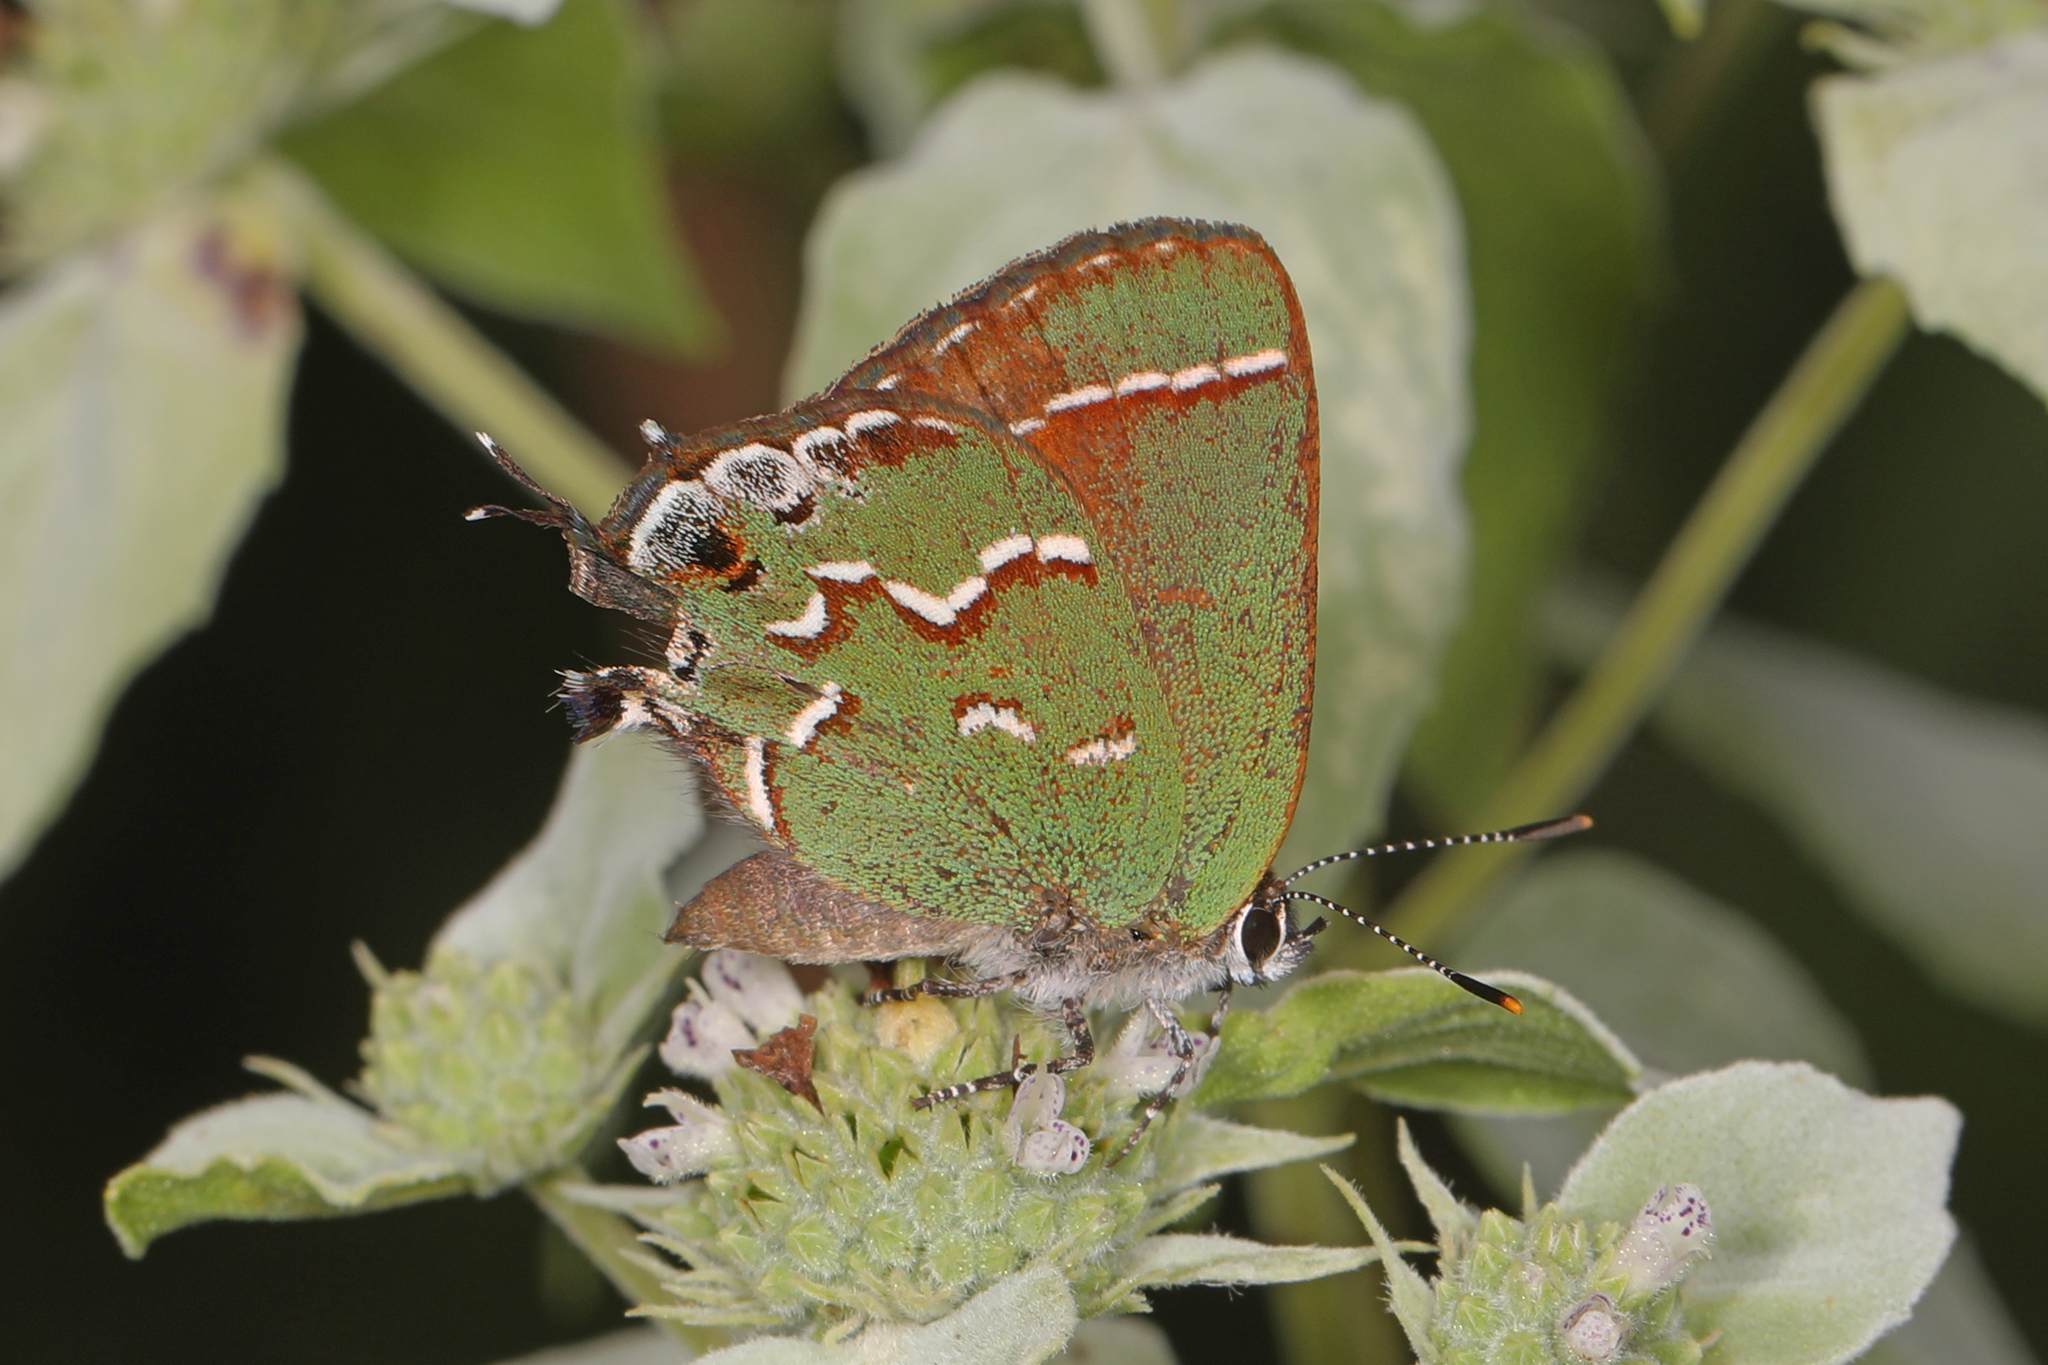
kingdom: Animalia
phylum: Arthropoda
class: Insecta
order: Lepidoptera
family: Lycaenidae
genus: Mitoura
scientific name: Mitoura gryneus
